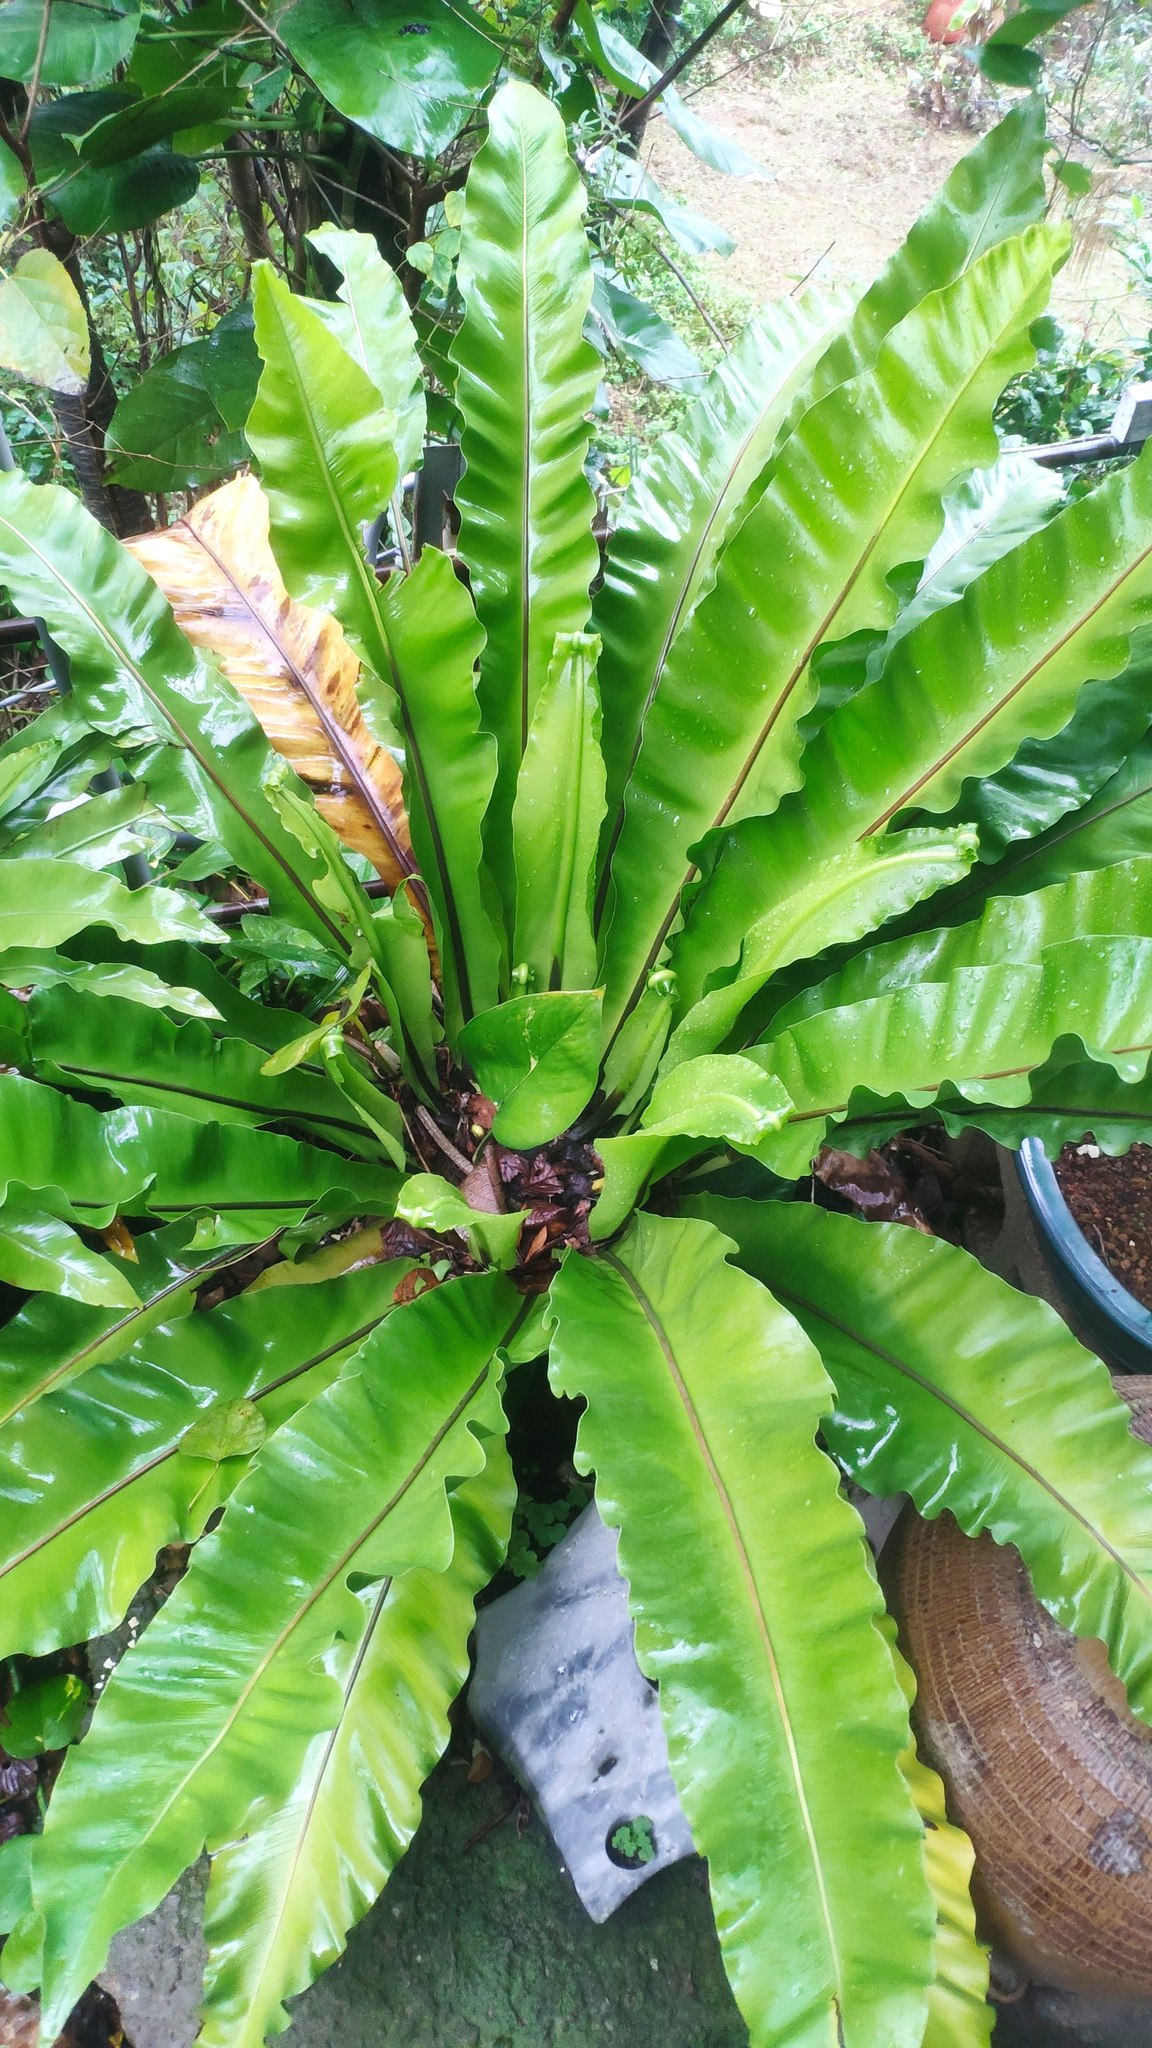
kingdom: Plantae
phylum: Tracheophyta
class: Polypodiopsida
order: Polypodiales
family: Aspleniaceae
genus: Asplenium
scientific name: Asplenium nidus
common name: Bird's-nest fern
